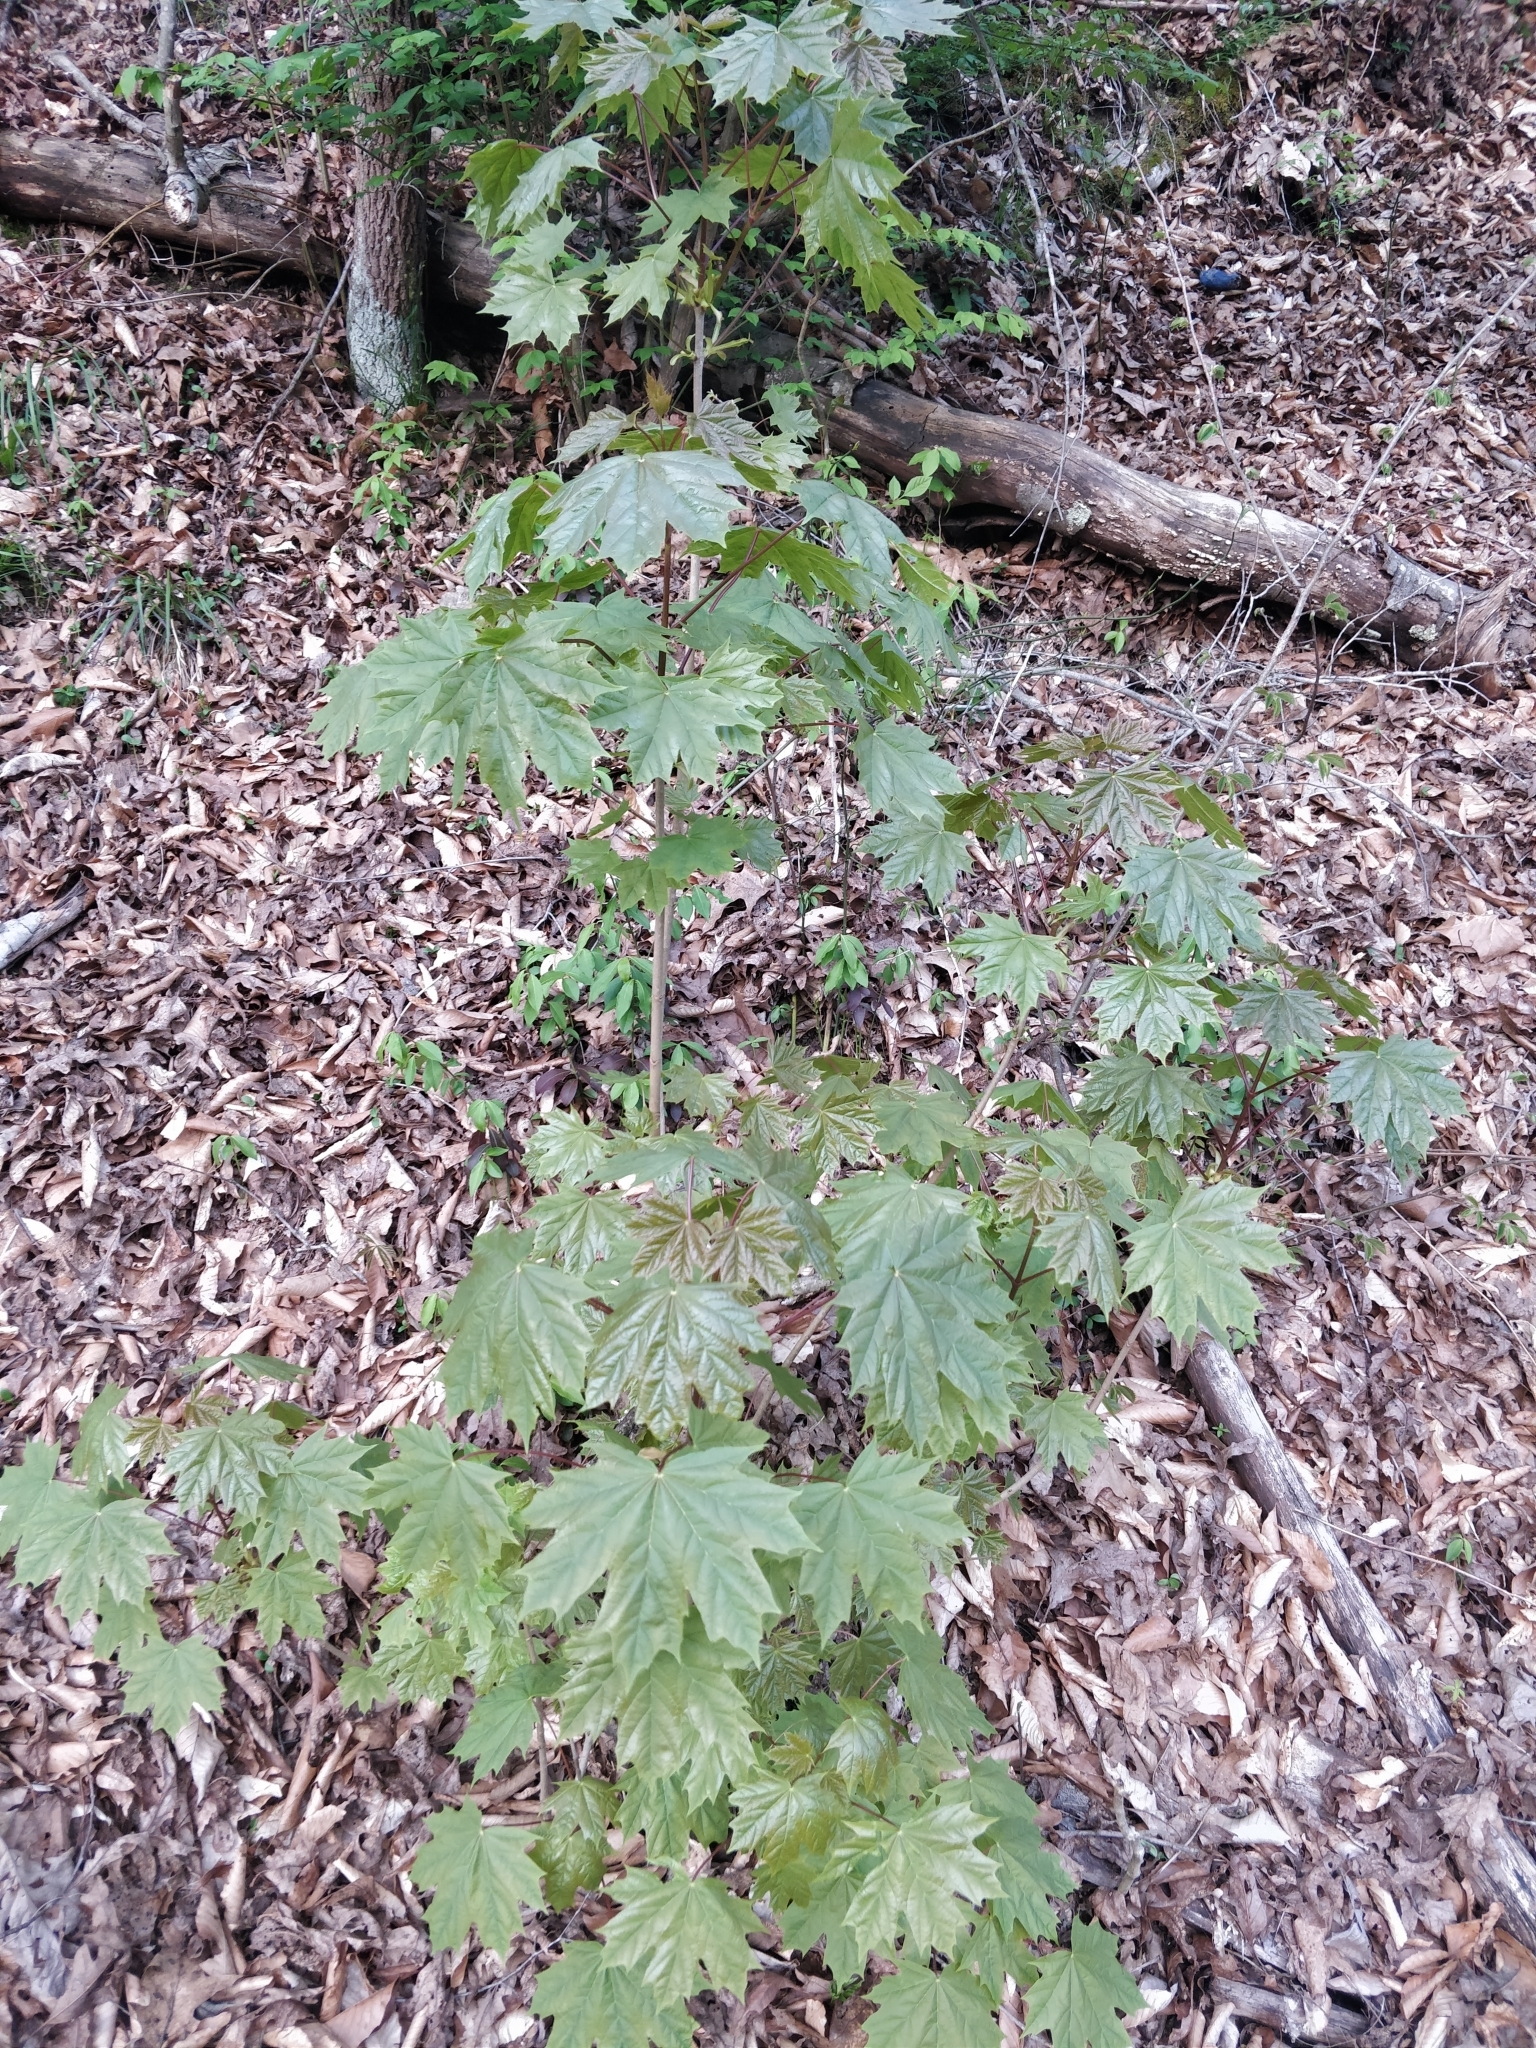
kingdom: Plantae
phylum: Tracheophyta
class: Magnoliopsida
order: Sapindales
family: Sapindaceae
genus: Acer
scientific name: Acer platanoides
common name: Norway maple
